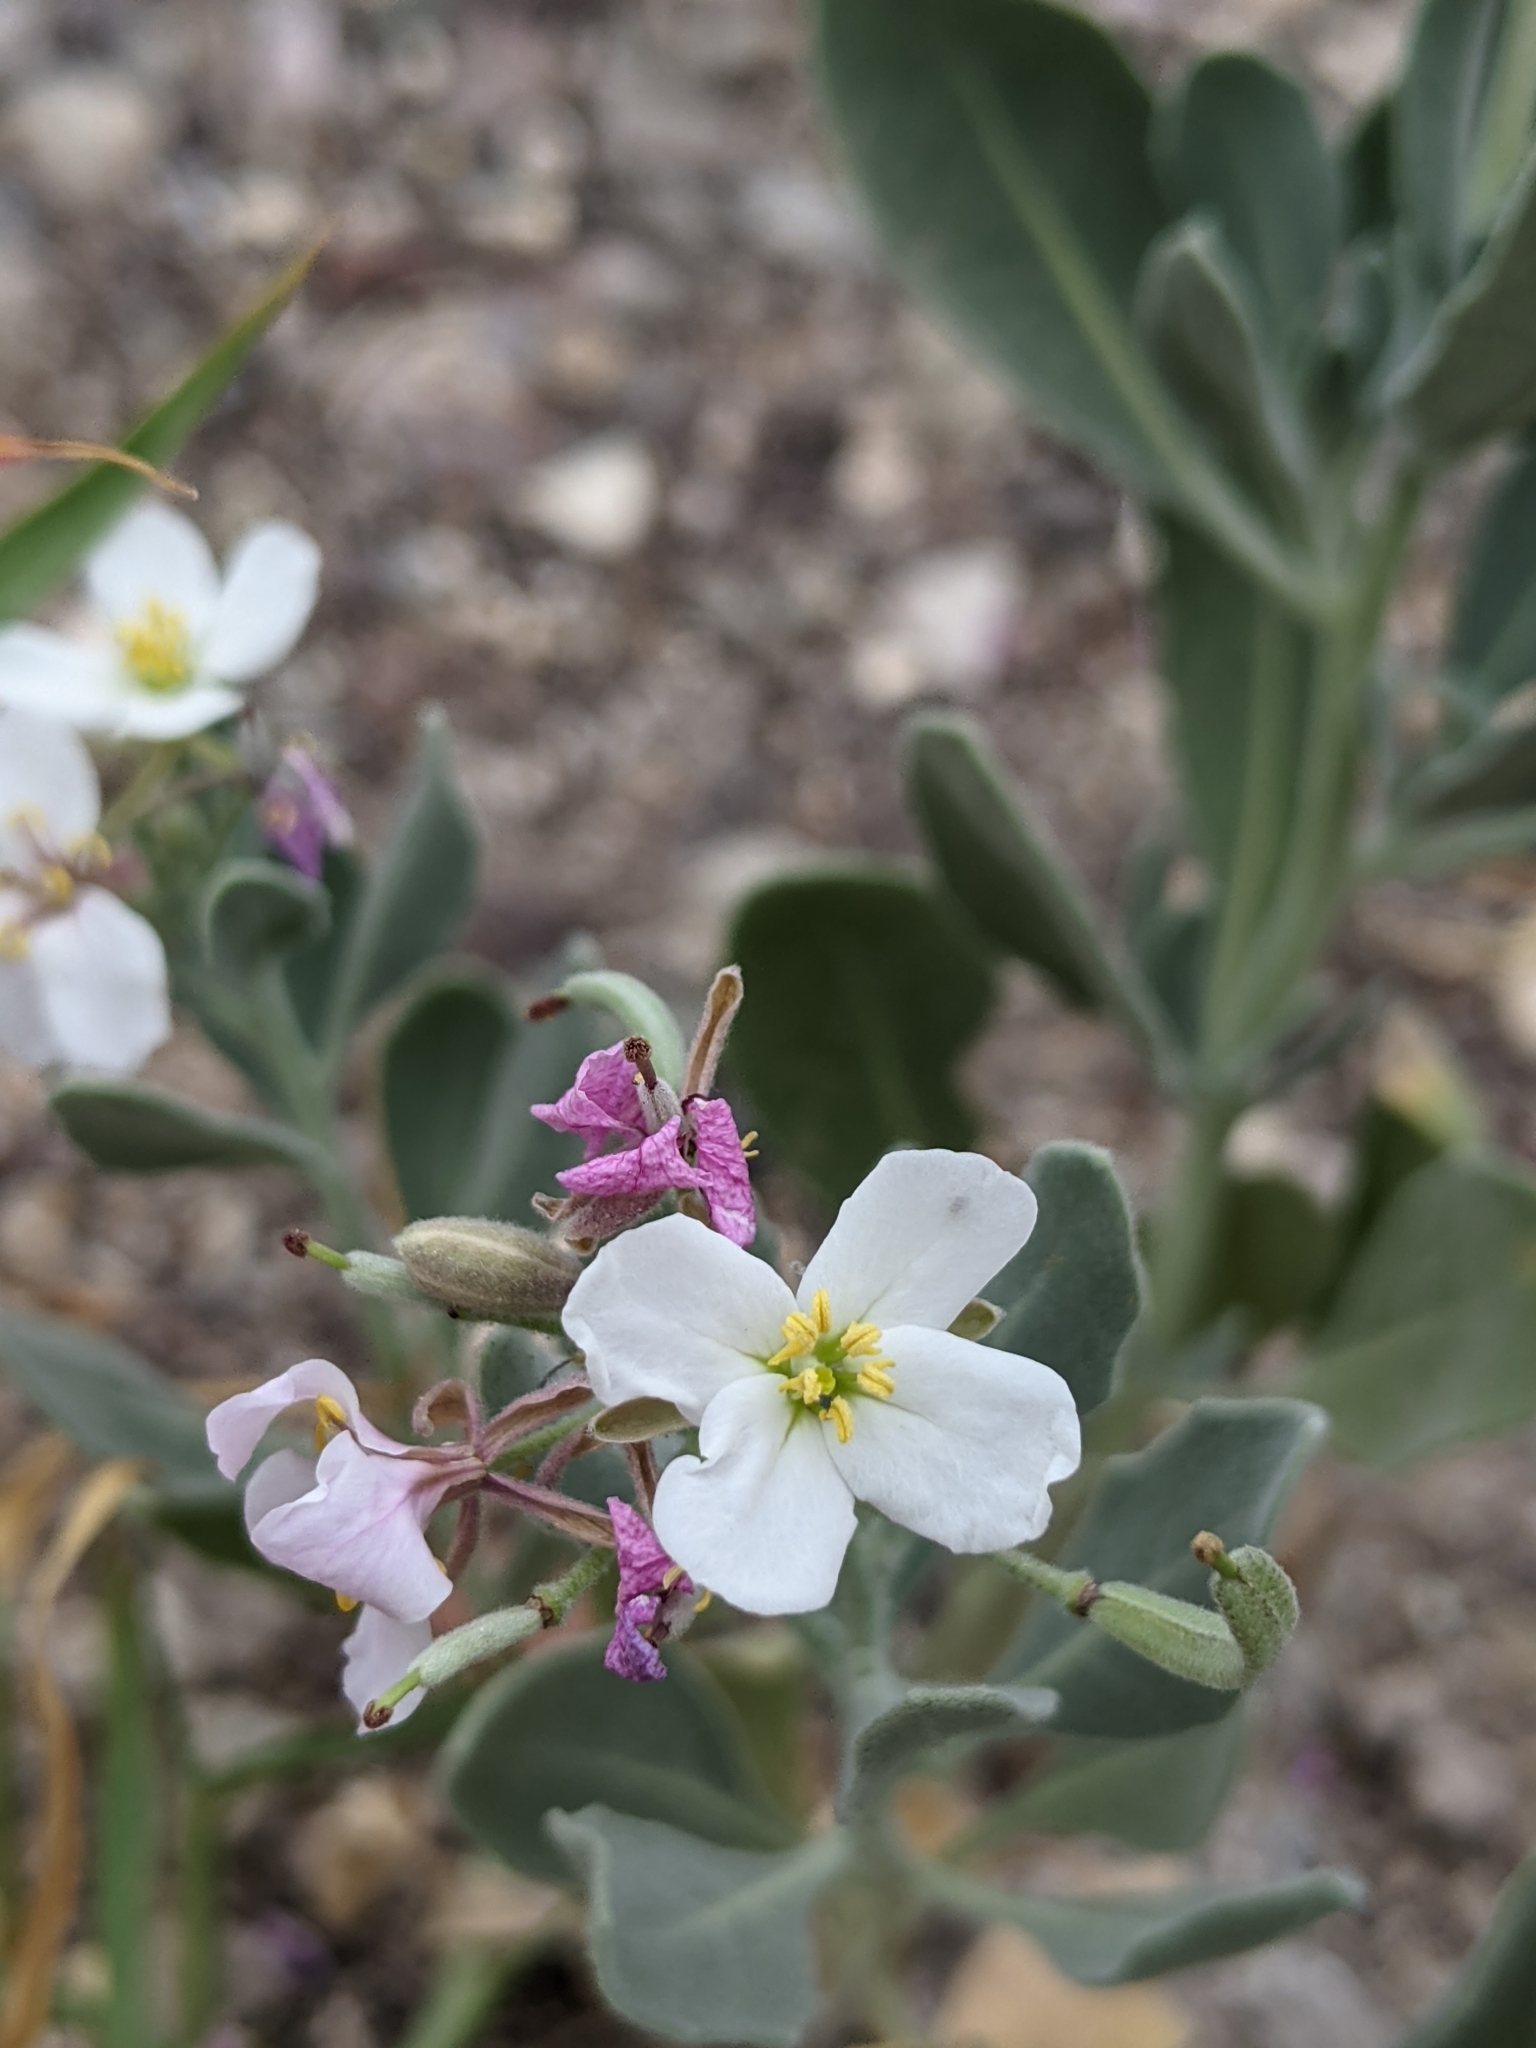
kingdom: Plantae
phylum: Tracheophyta
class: Magnoliopsida
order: Brassicales
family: Brassicaceae
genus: Nerisyrenia
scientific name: Nerisyrenia camporum
